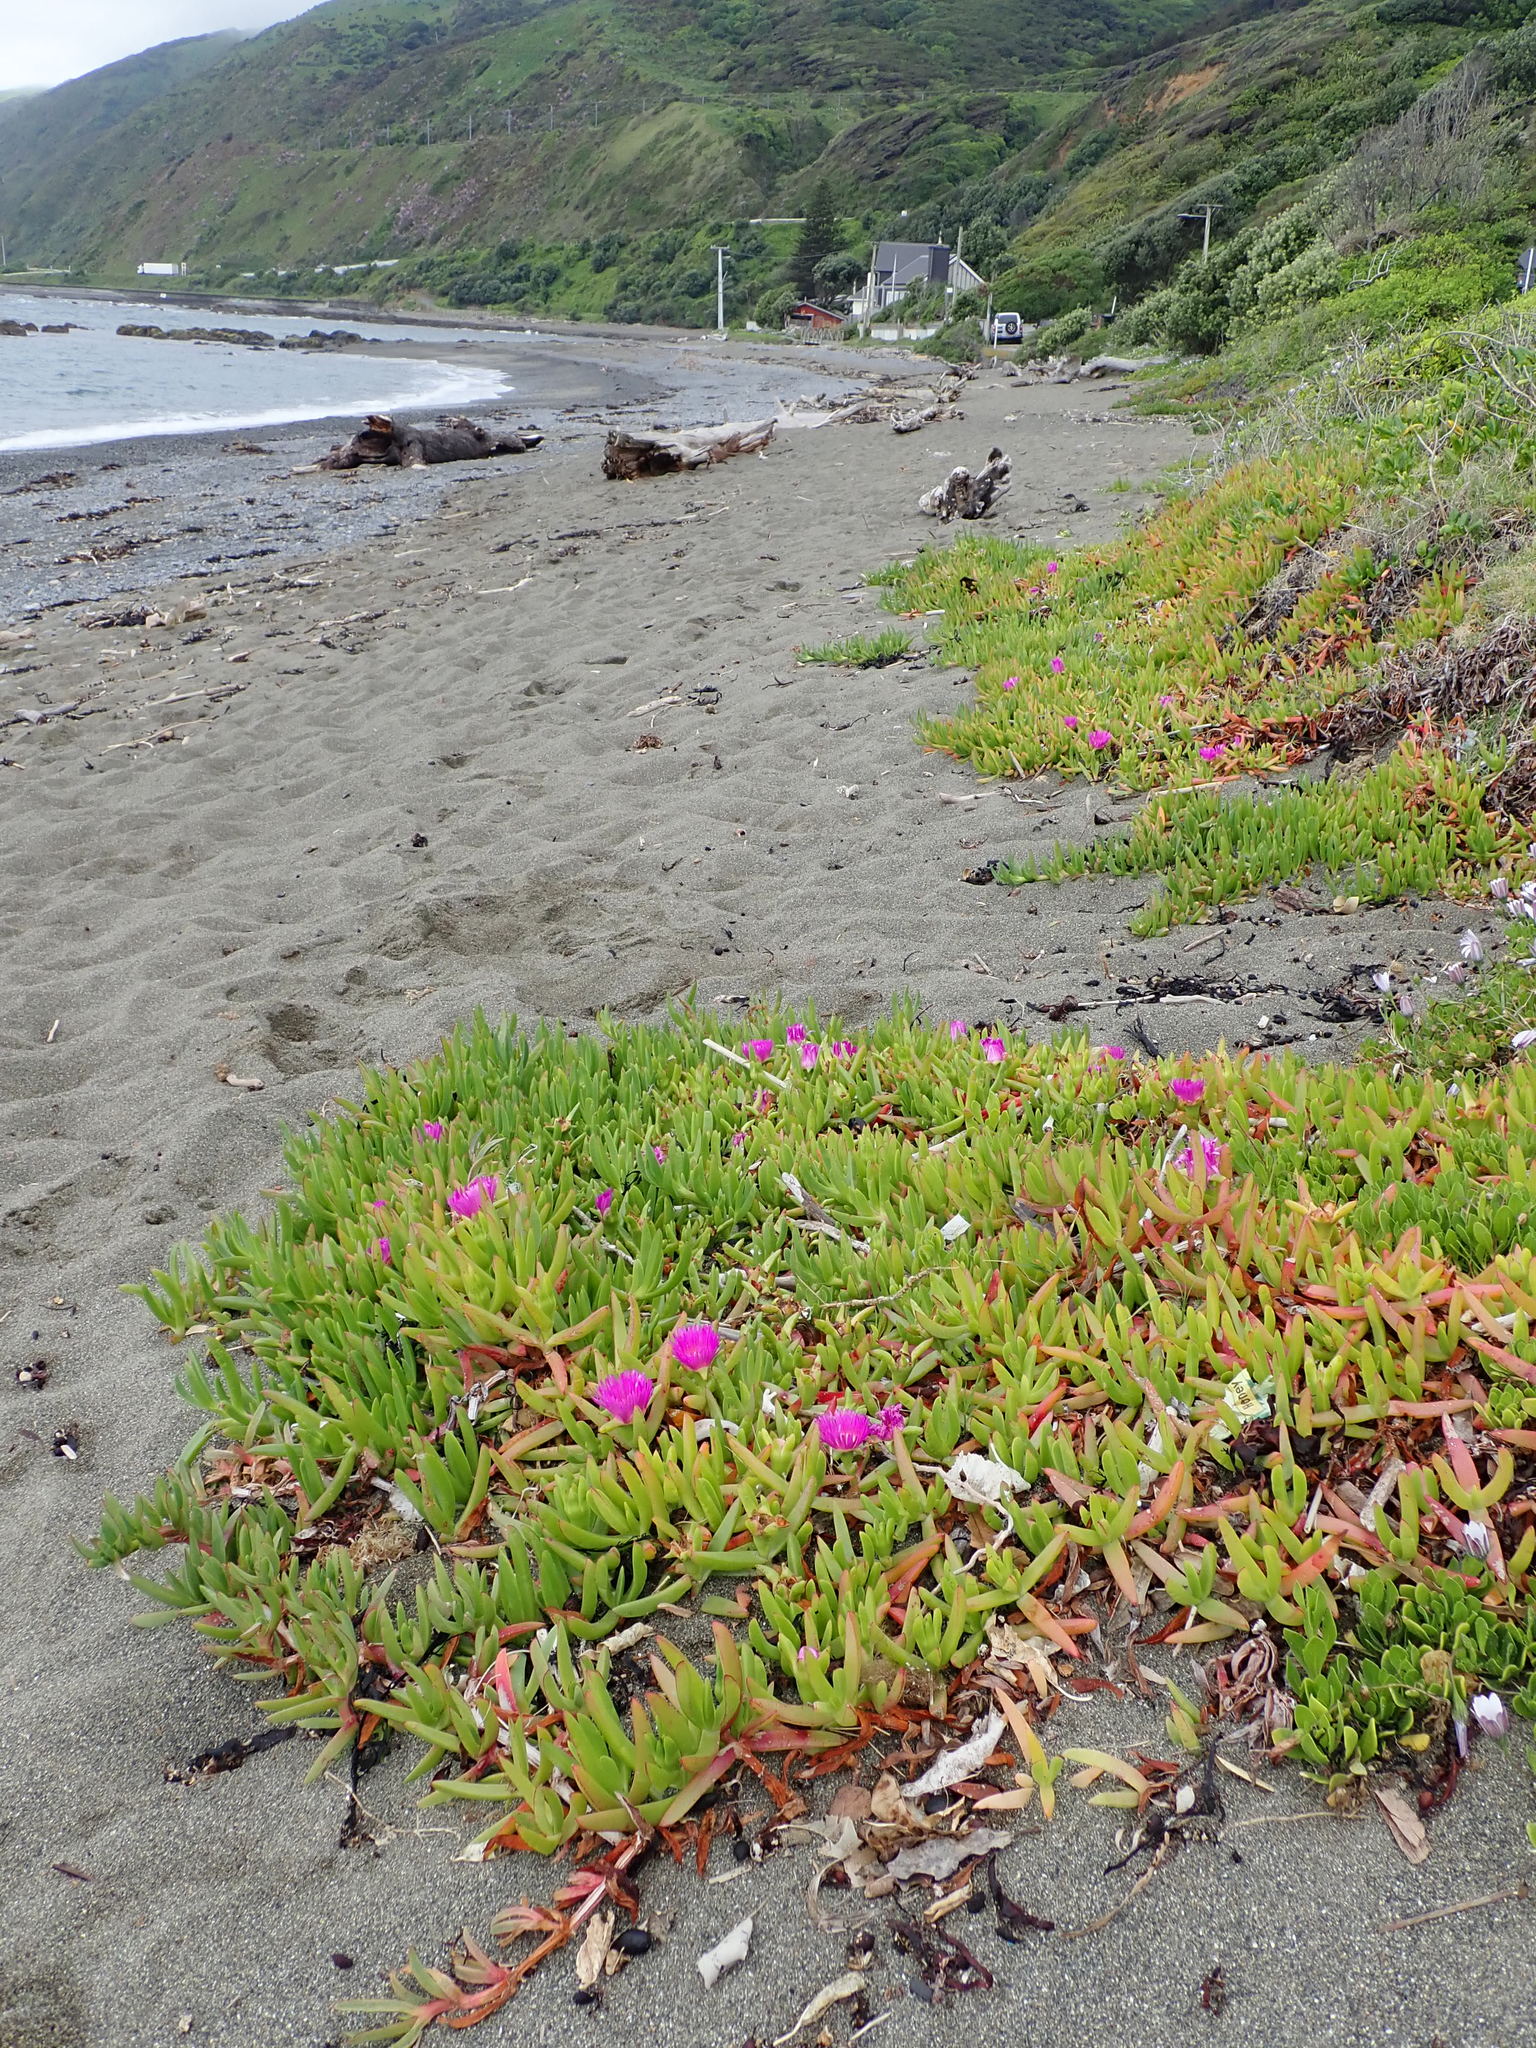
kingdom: Plantae
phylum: Tracheophyta
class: Magnoliopsida
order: Caryophyllales
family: Aizoaceae
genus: Carpobrotus
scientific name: Carpobrotus chilensis
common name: Sea fig
